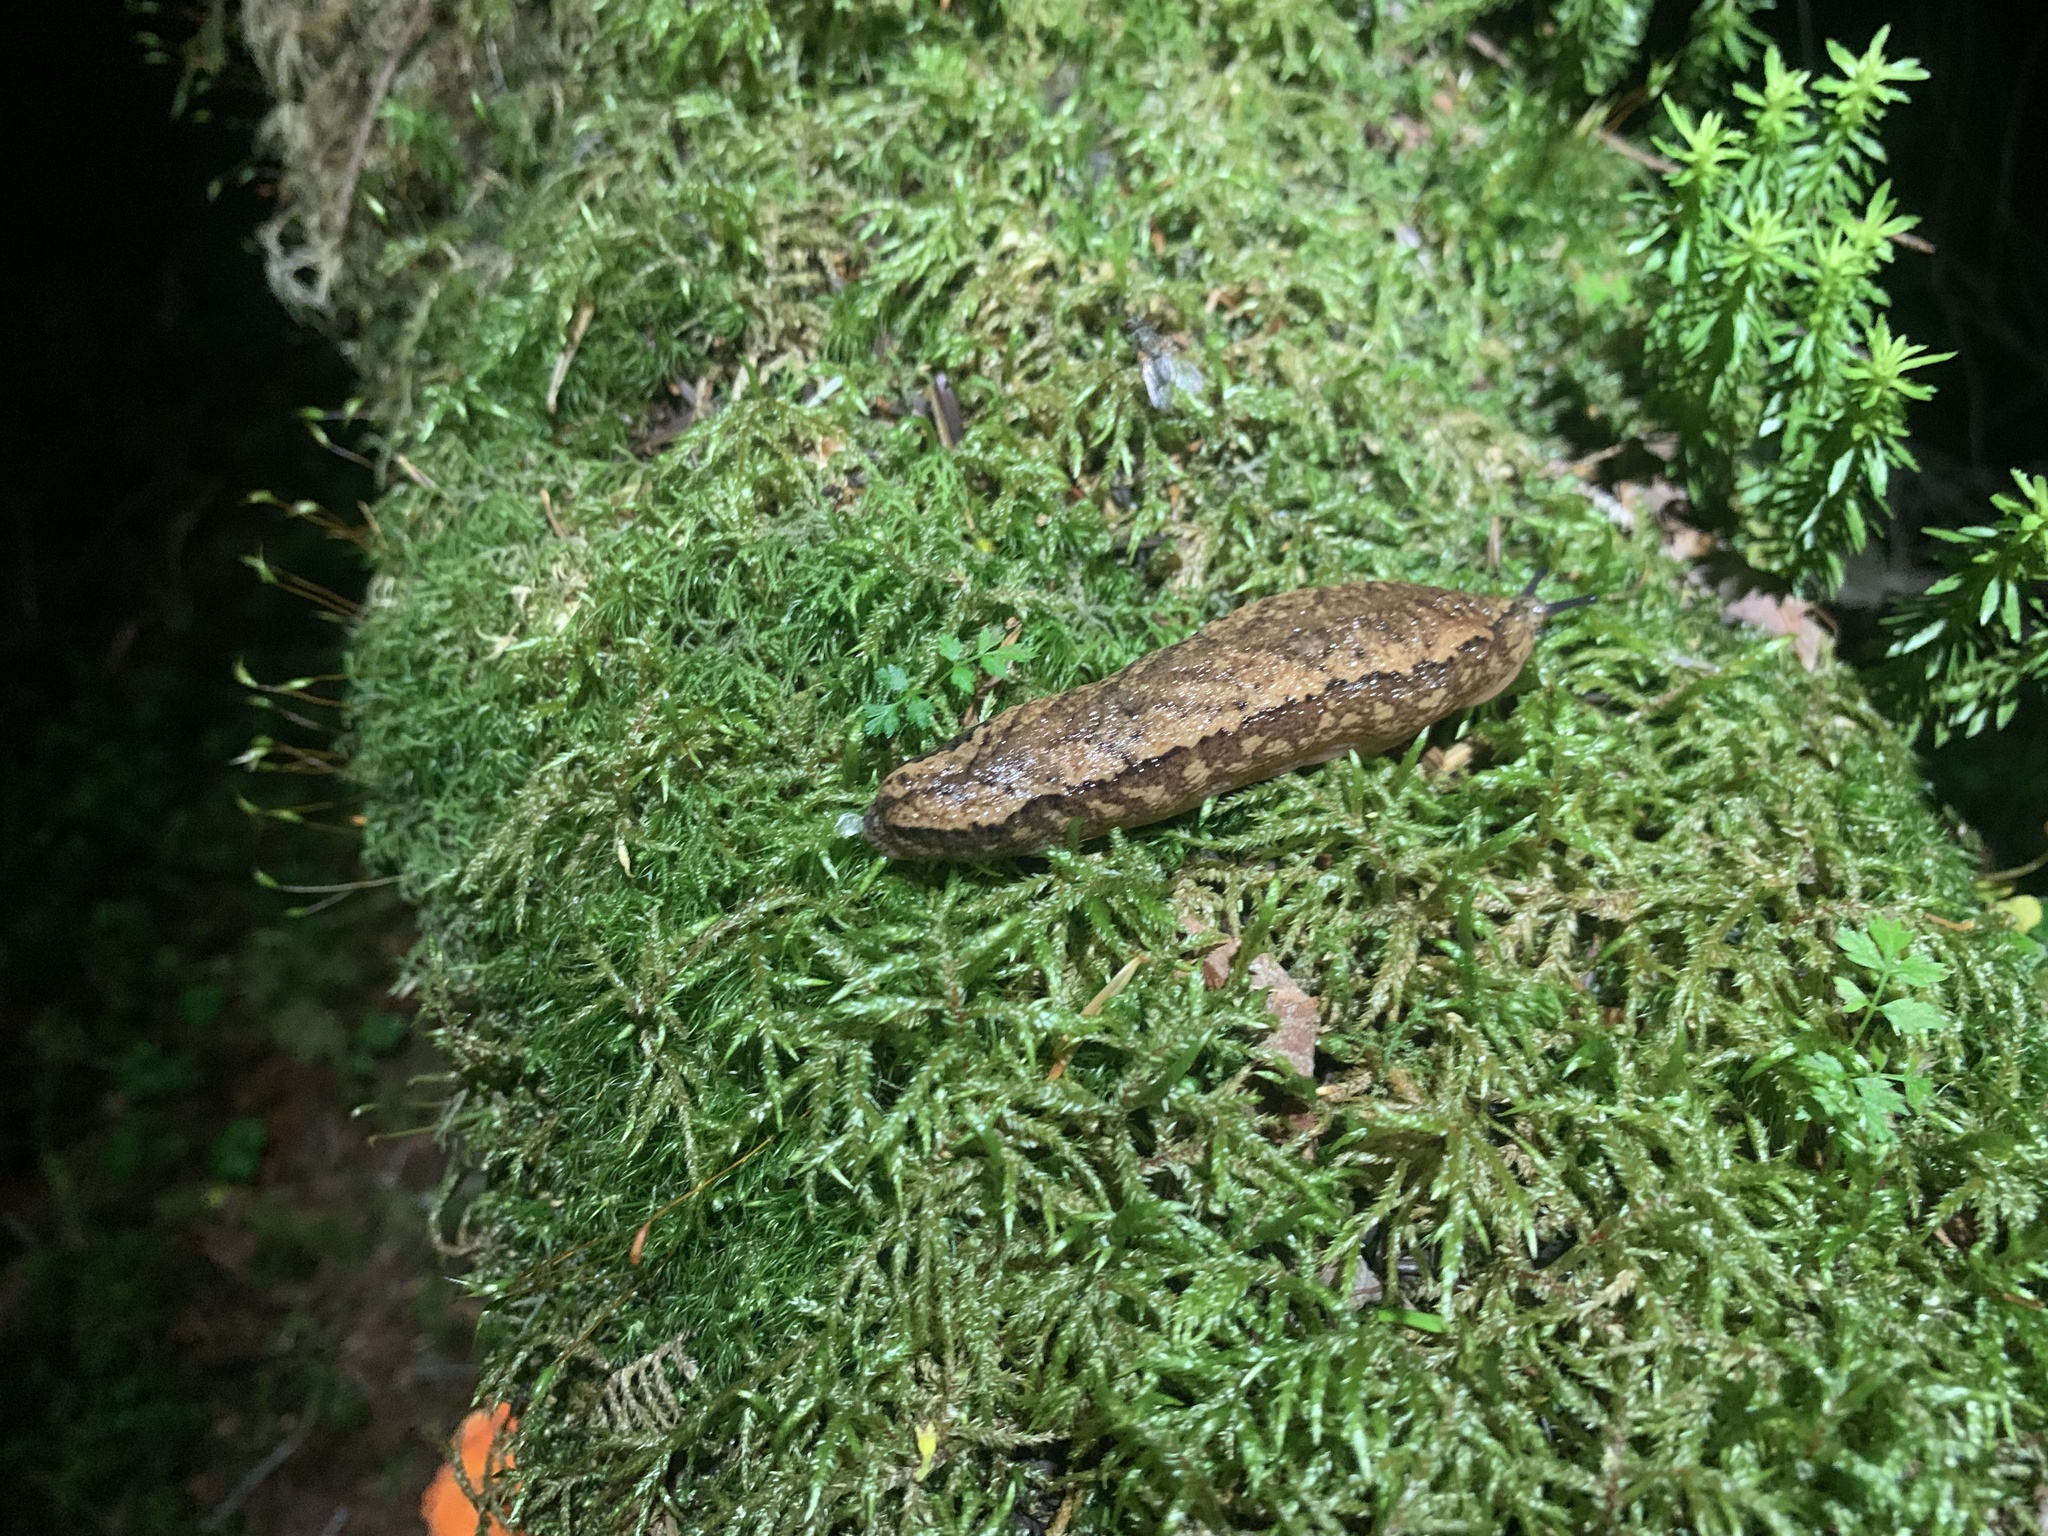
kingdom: Animalia
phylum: Mollusca
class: Gastropoda
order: Stylommatophora
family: Philomycidae
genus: Meghimatium
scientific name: Meghimatium fruhstorferi
